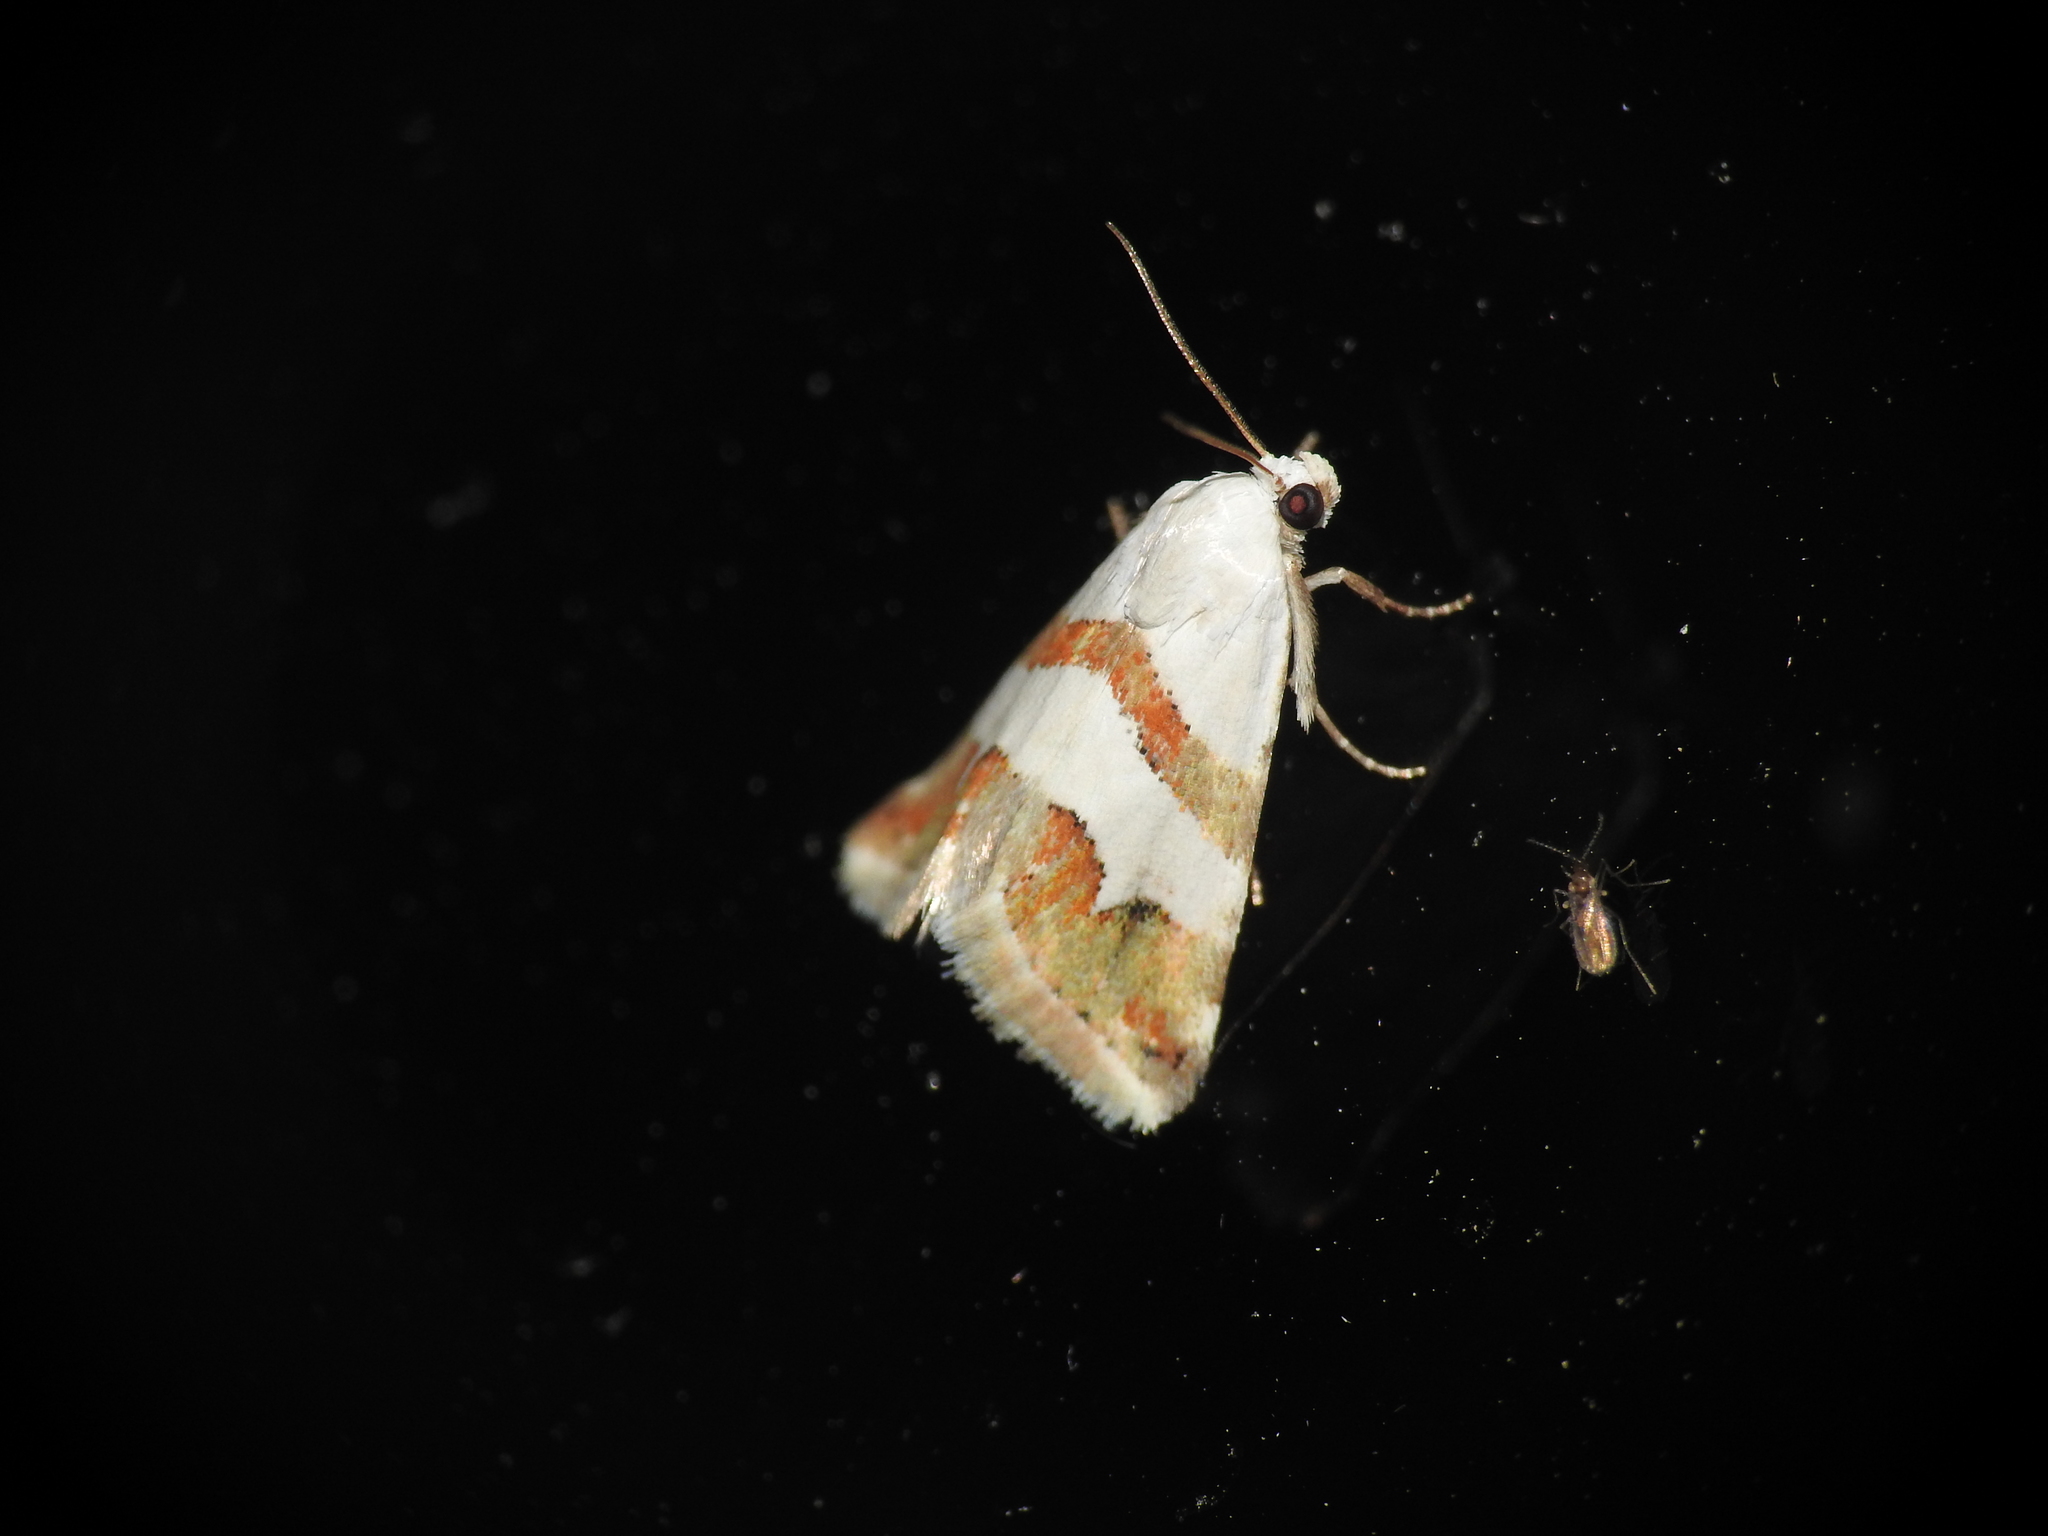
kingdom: Animalia
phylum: Arthropoda
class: Insecta
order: Lepidoptera
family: Noctuidae
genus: Eublemma
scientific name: Eublemma candidana
